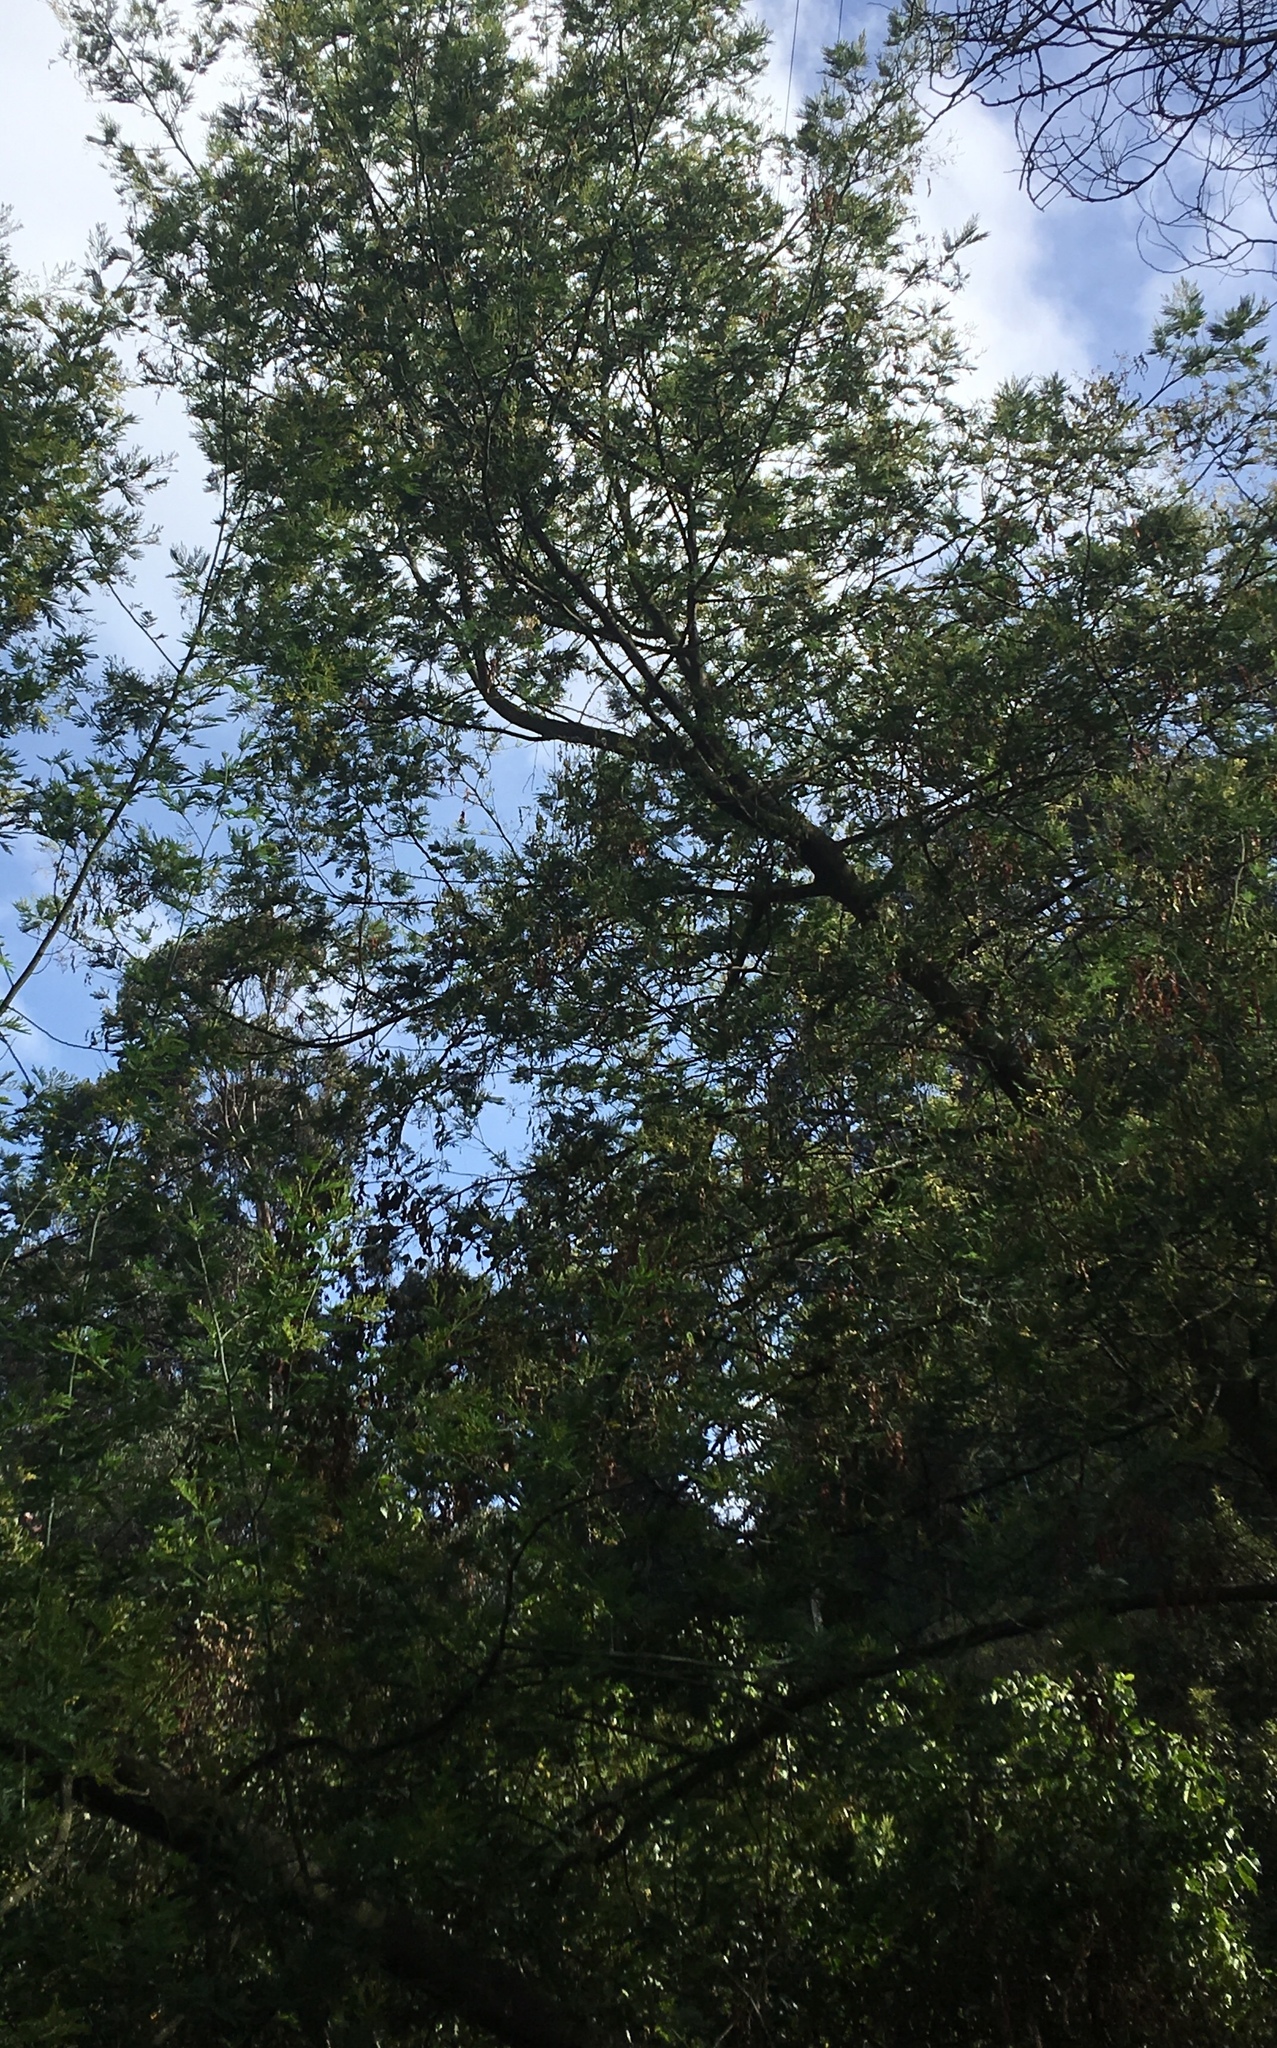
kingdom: Plantae
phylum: Tracheophyta
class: Magnoliopsida
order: Fabales
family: Fabaceae
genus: Acacia
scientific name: Acacia dealbata
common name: Silver wattle
